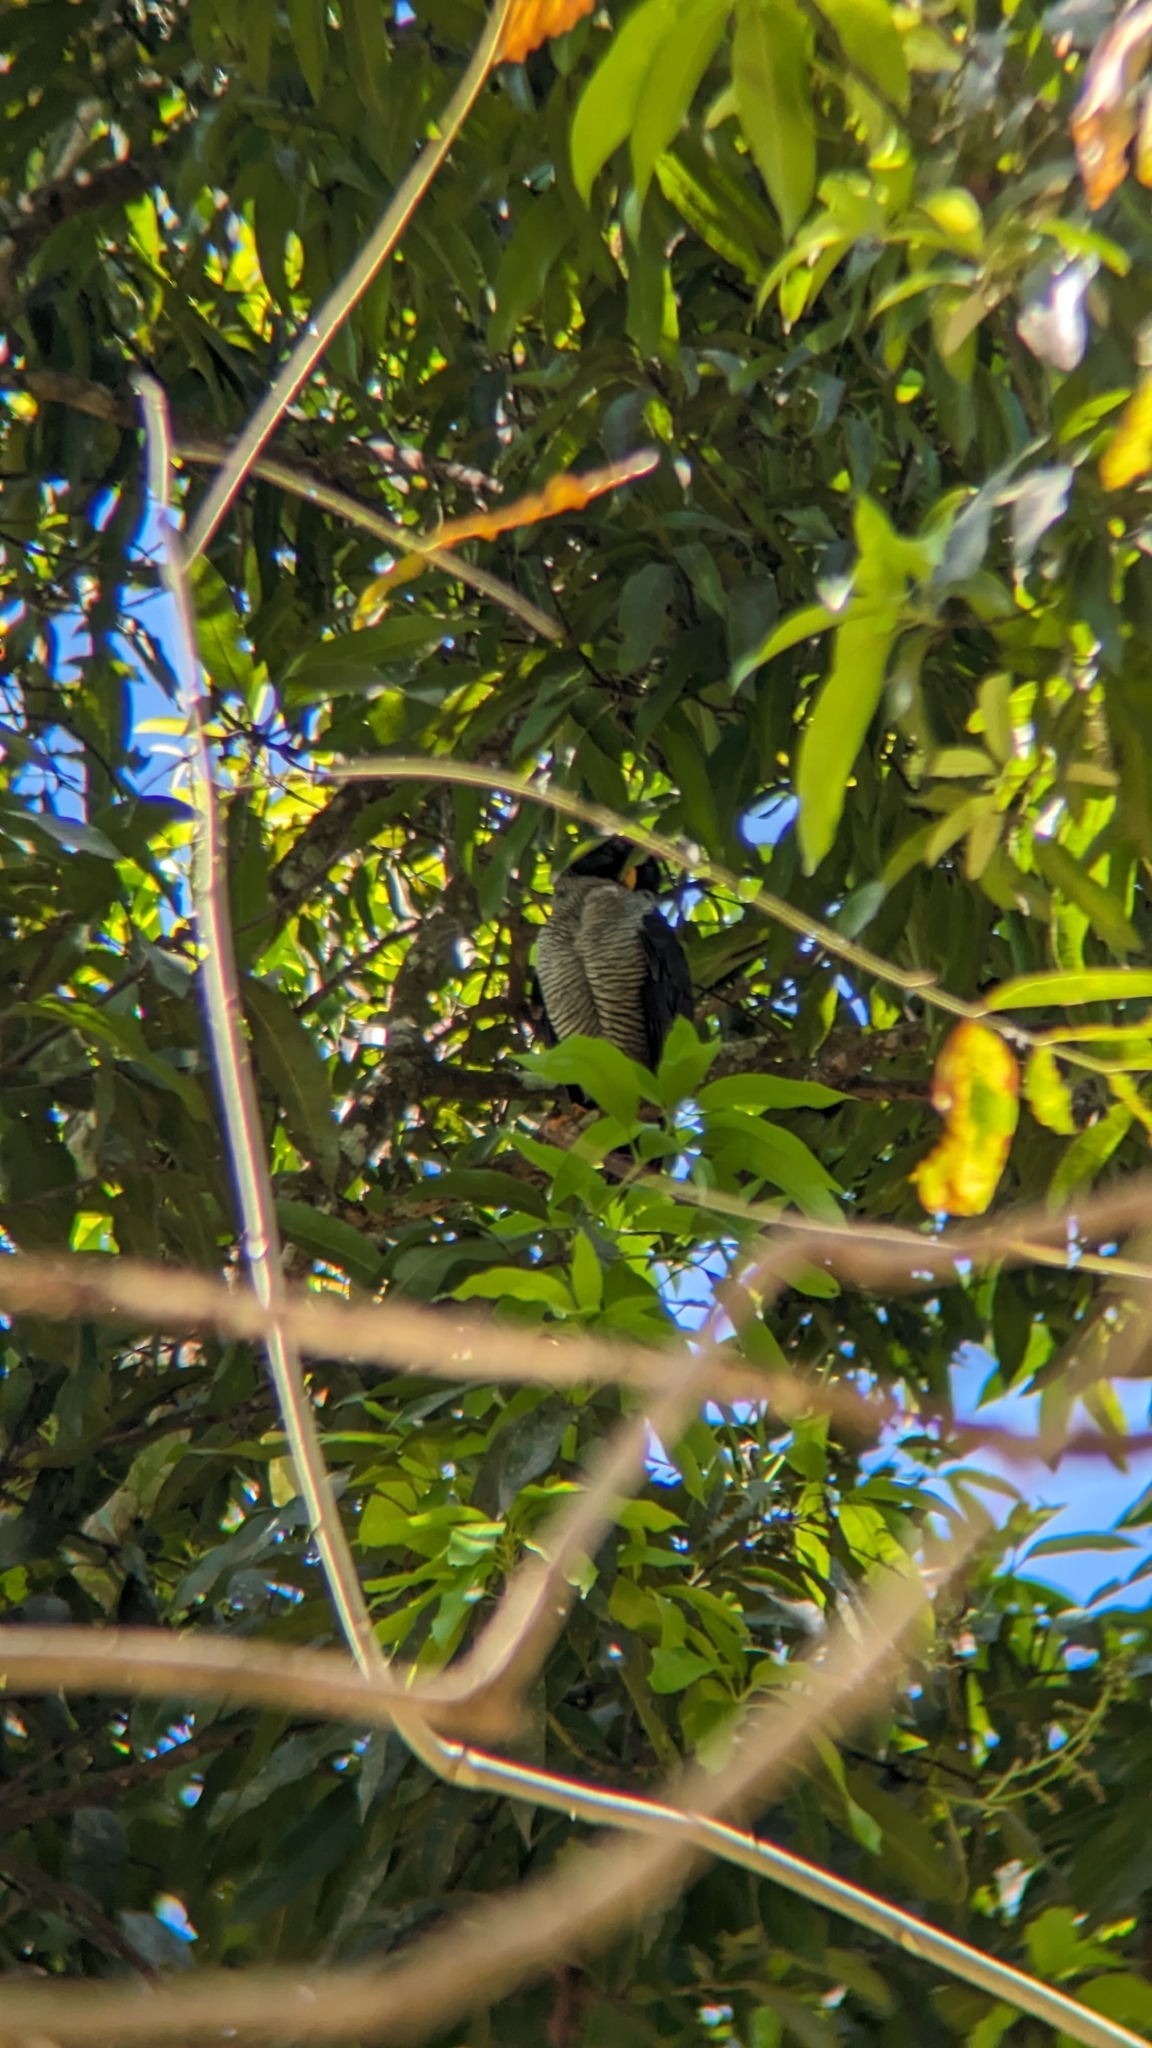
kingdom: Animalia
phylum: Chordata
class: Aves
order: Strigiformes
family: Strigidae
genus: Strix
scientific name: Strix nigrolineata
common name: Black-and-white owl
